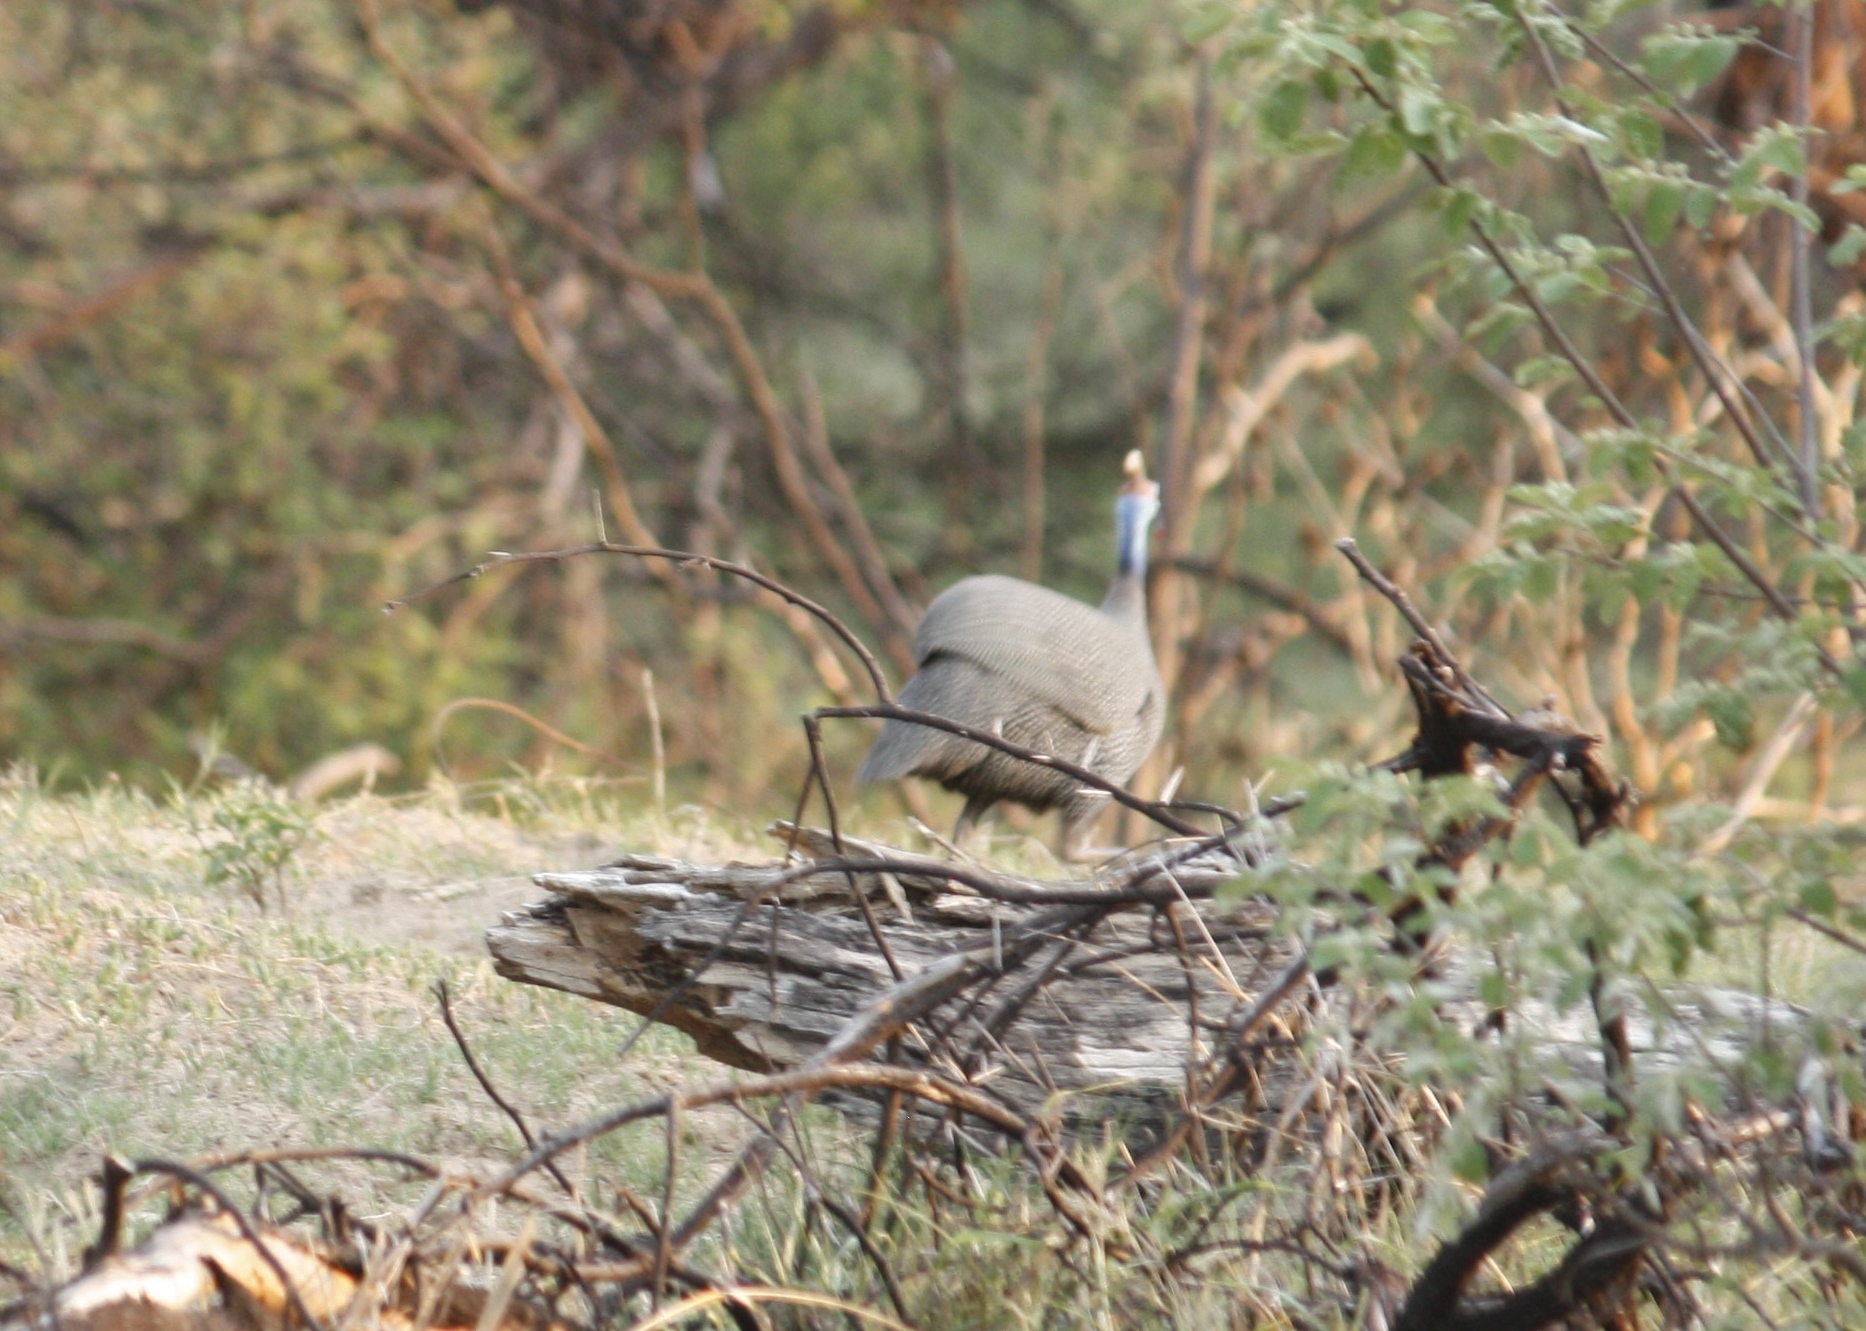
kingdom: Animalia
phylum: Chordata
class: Aves
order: Galliformes
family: Numididae
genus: Numida
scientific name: Numida meleagris
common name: Helmeted guineafowl
